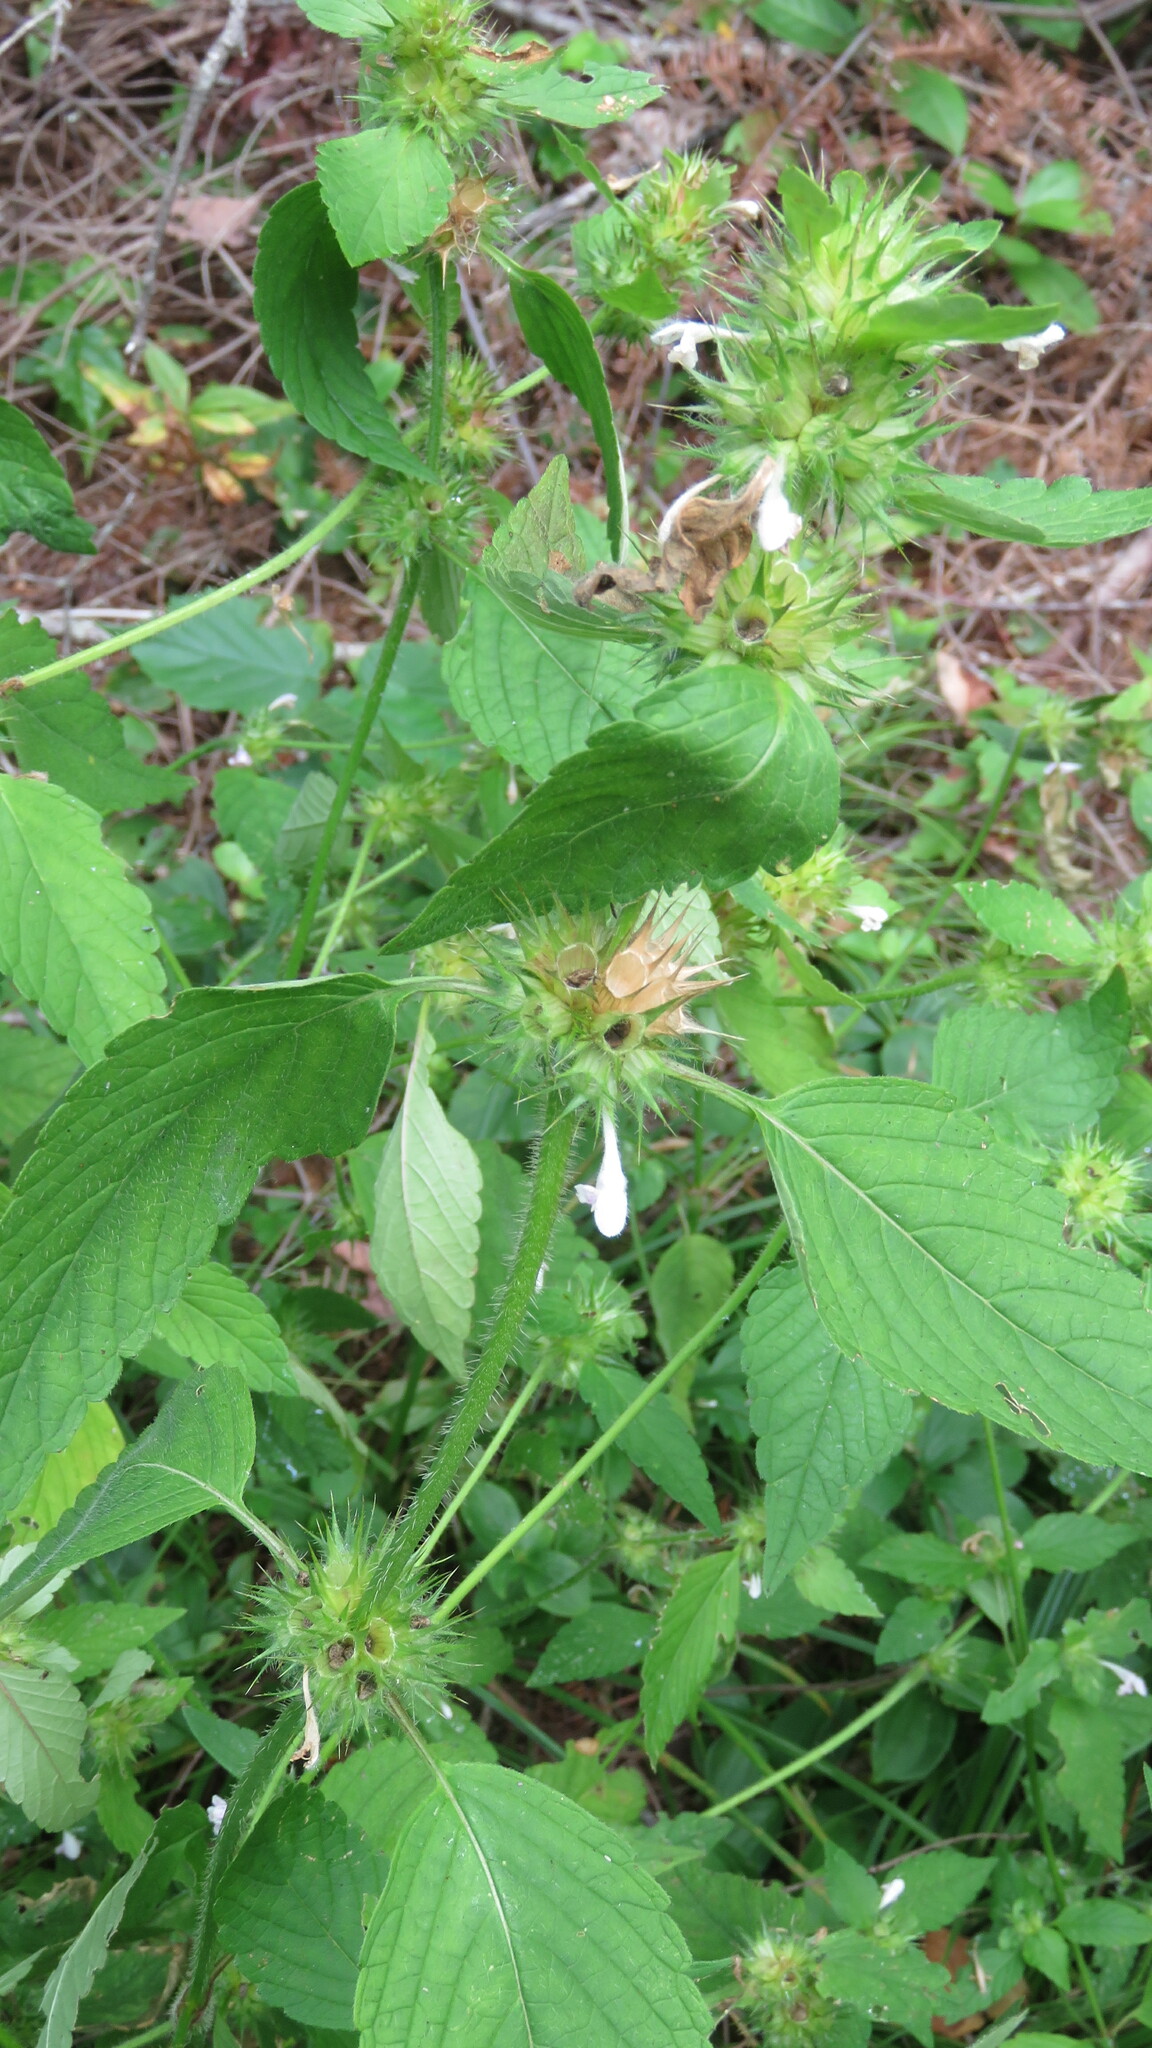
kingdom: Plantae
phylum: Tracheophyta
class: Magnoliopsida
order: Lamiales
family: Lamiaceae
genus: Galeopsis
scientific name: Galeopsis tetrahit
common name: Common hemp-nettle
